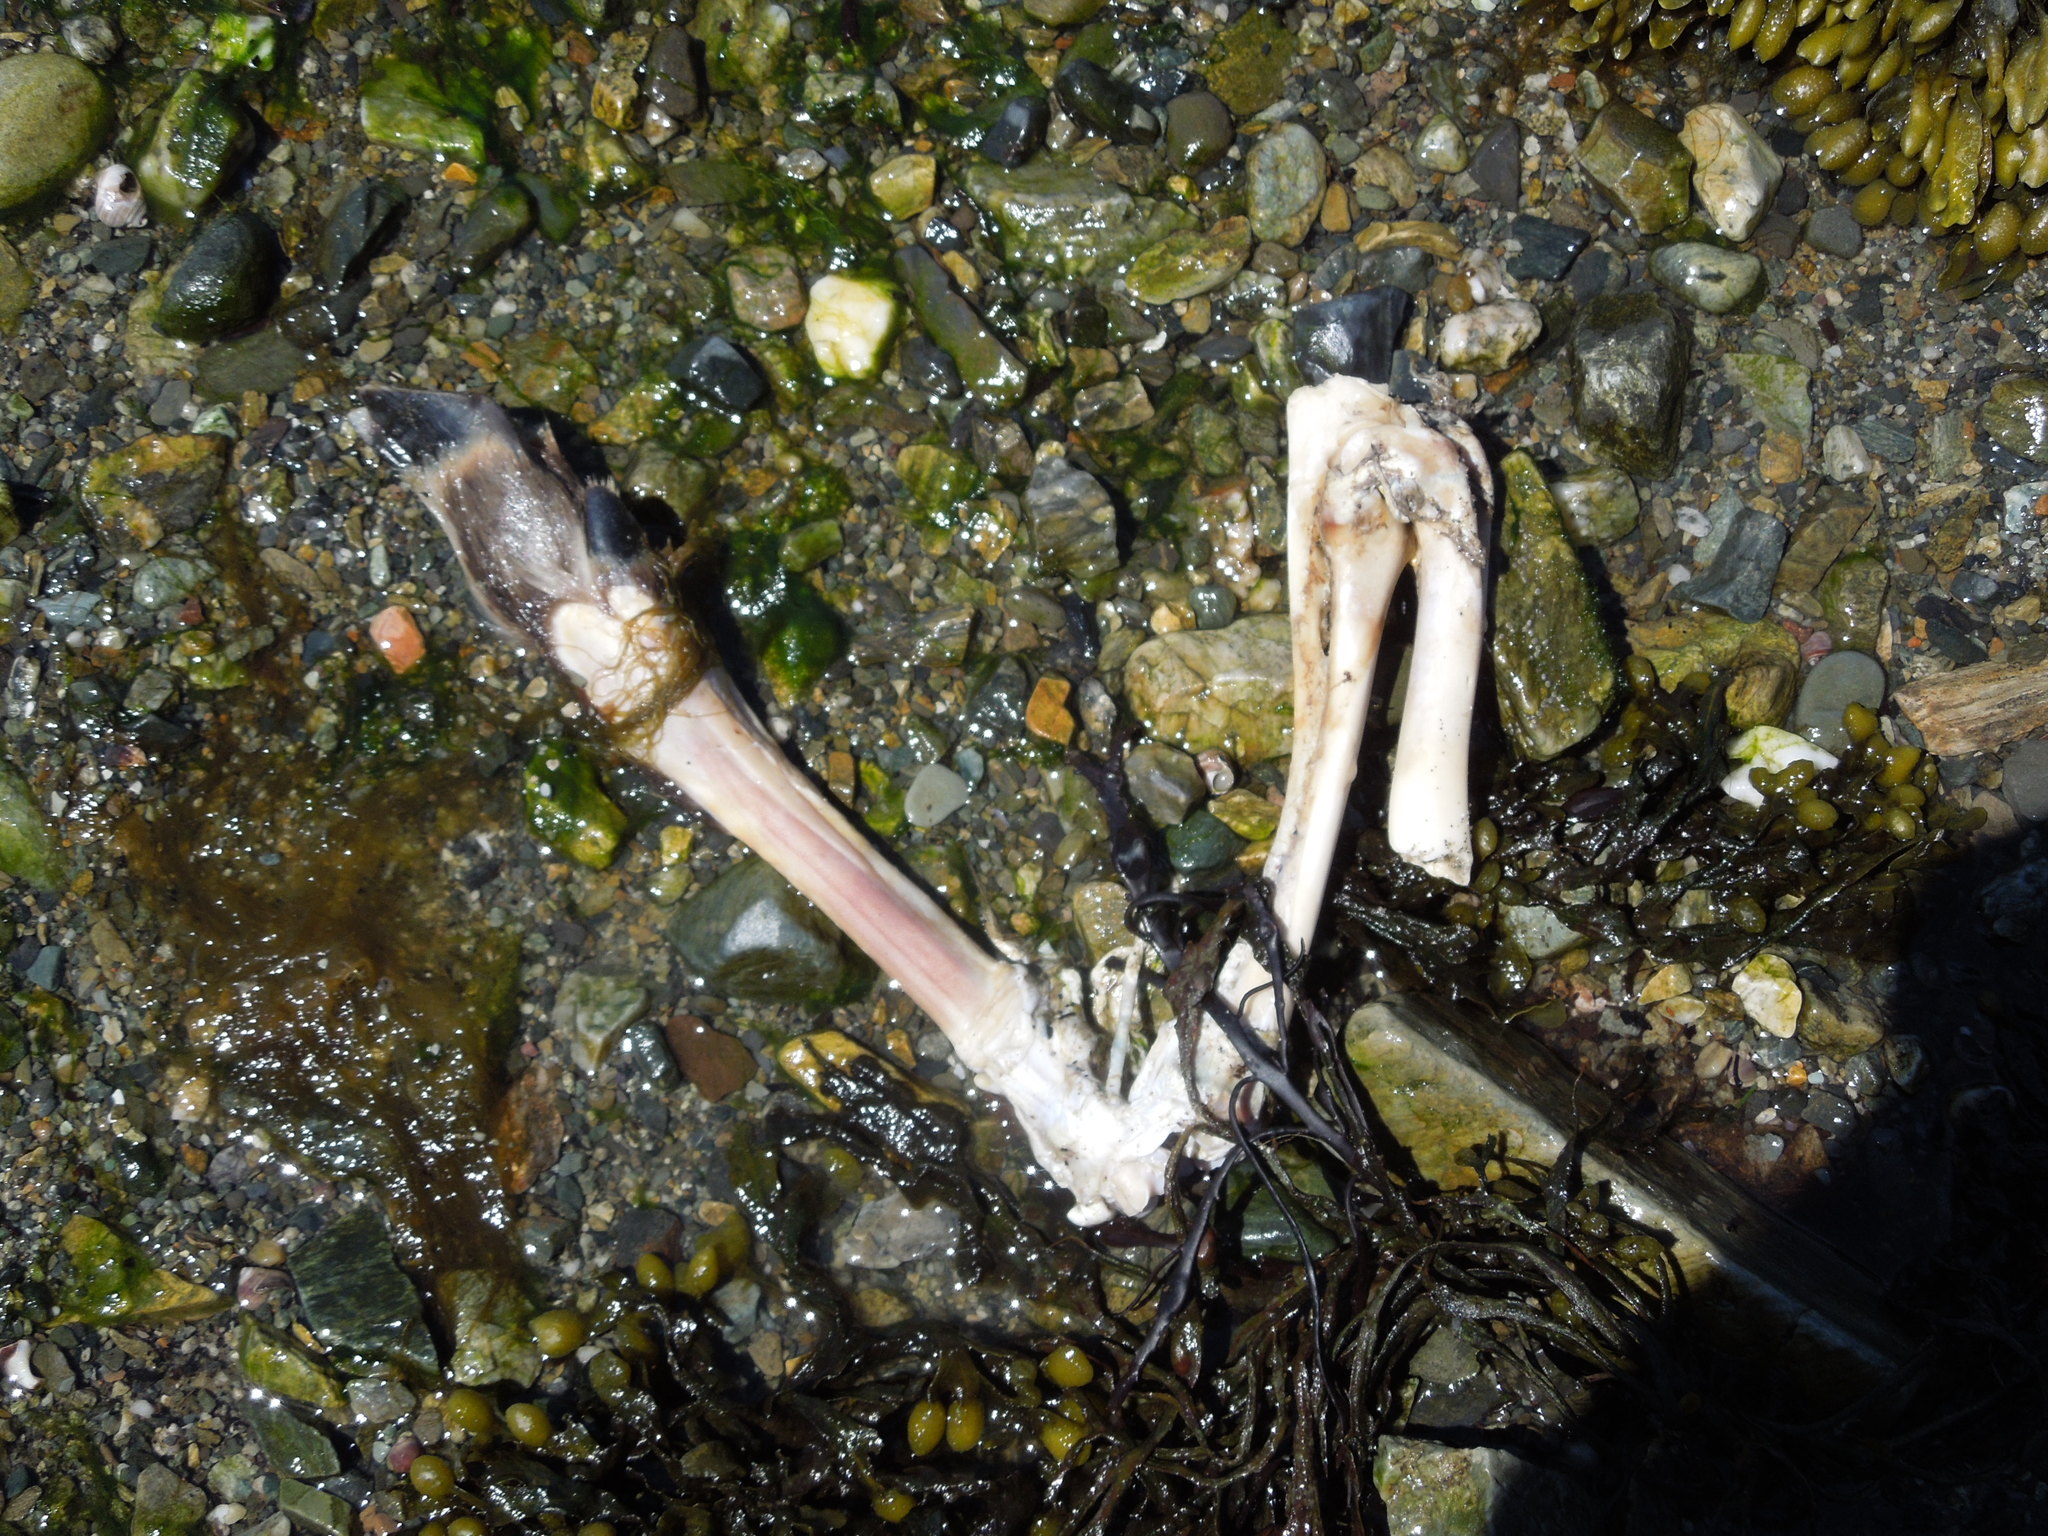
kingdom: Animalia
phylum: Chordata
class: Mammalia
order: Artiodactyla
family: Cervidae
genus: Odocoileus
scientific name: Odocoileus virginianus
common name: White-tailed deer
